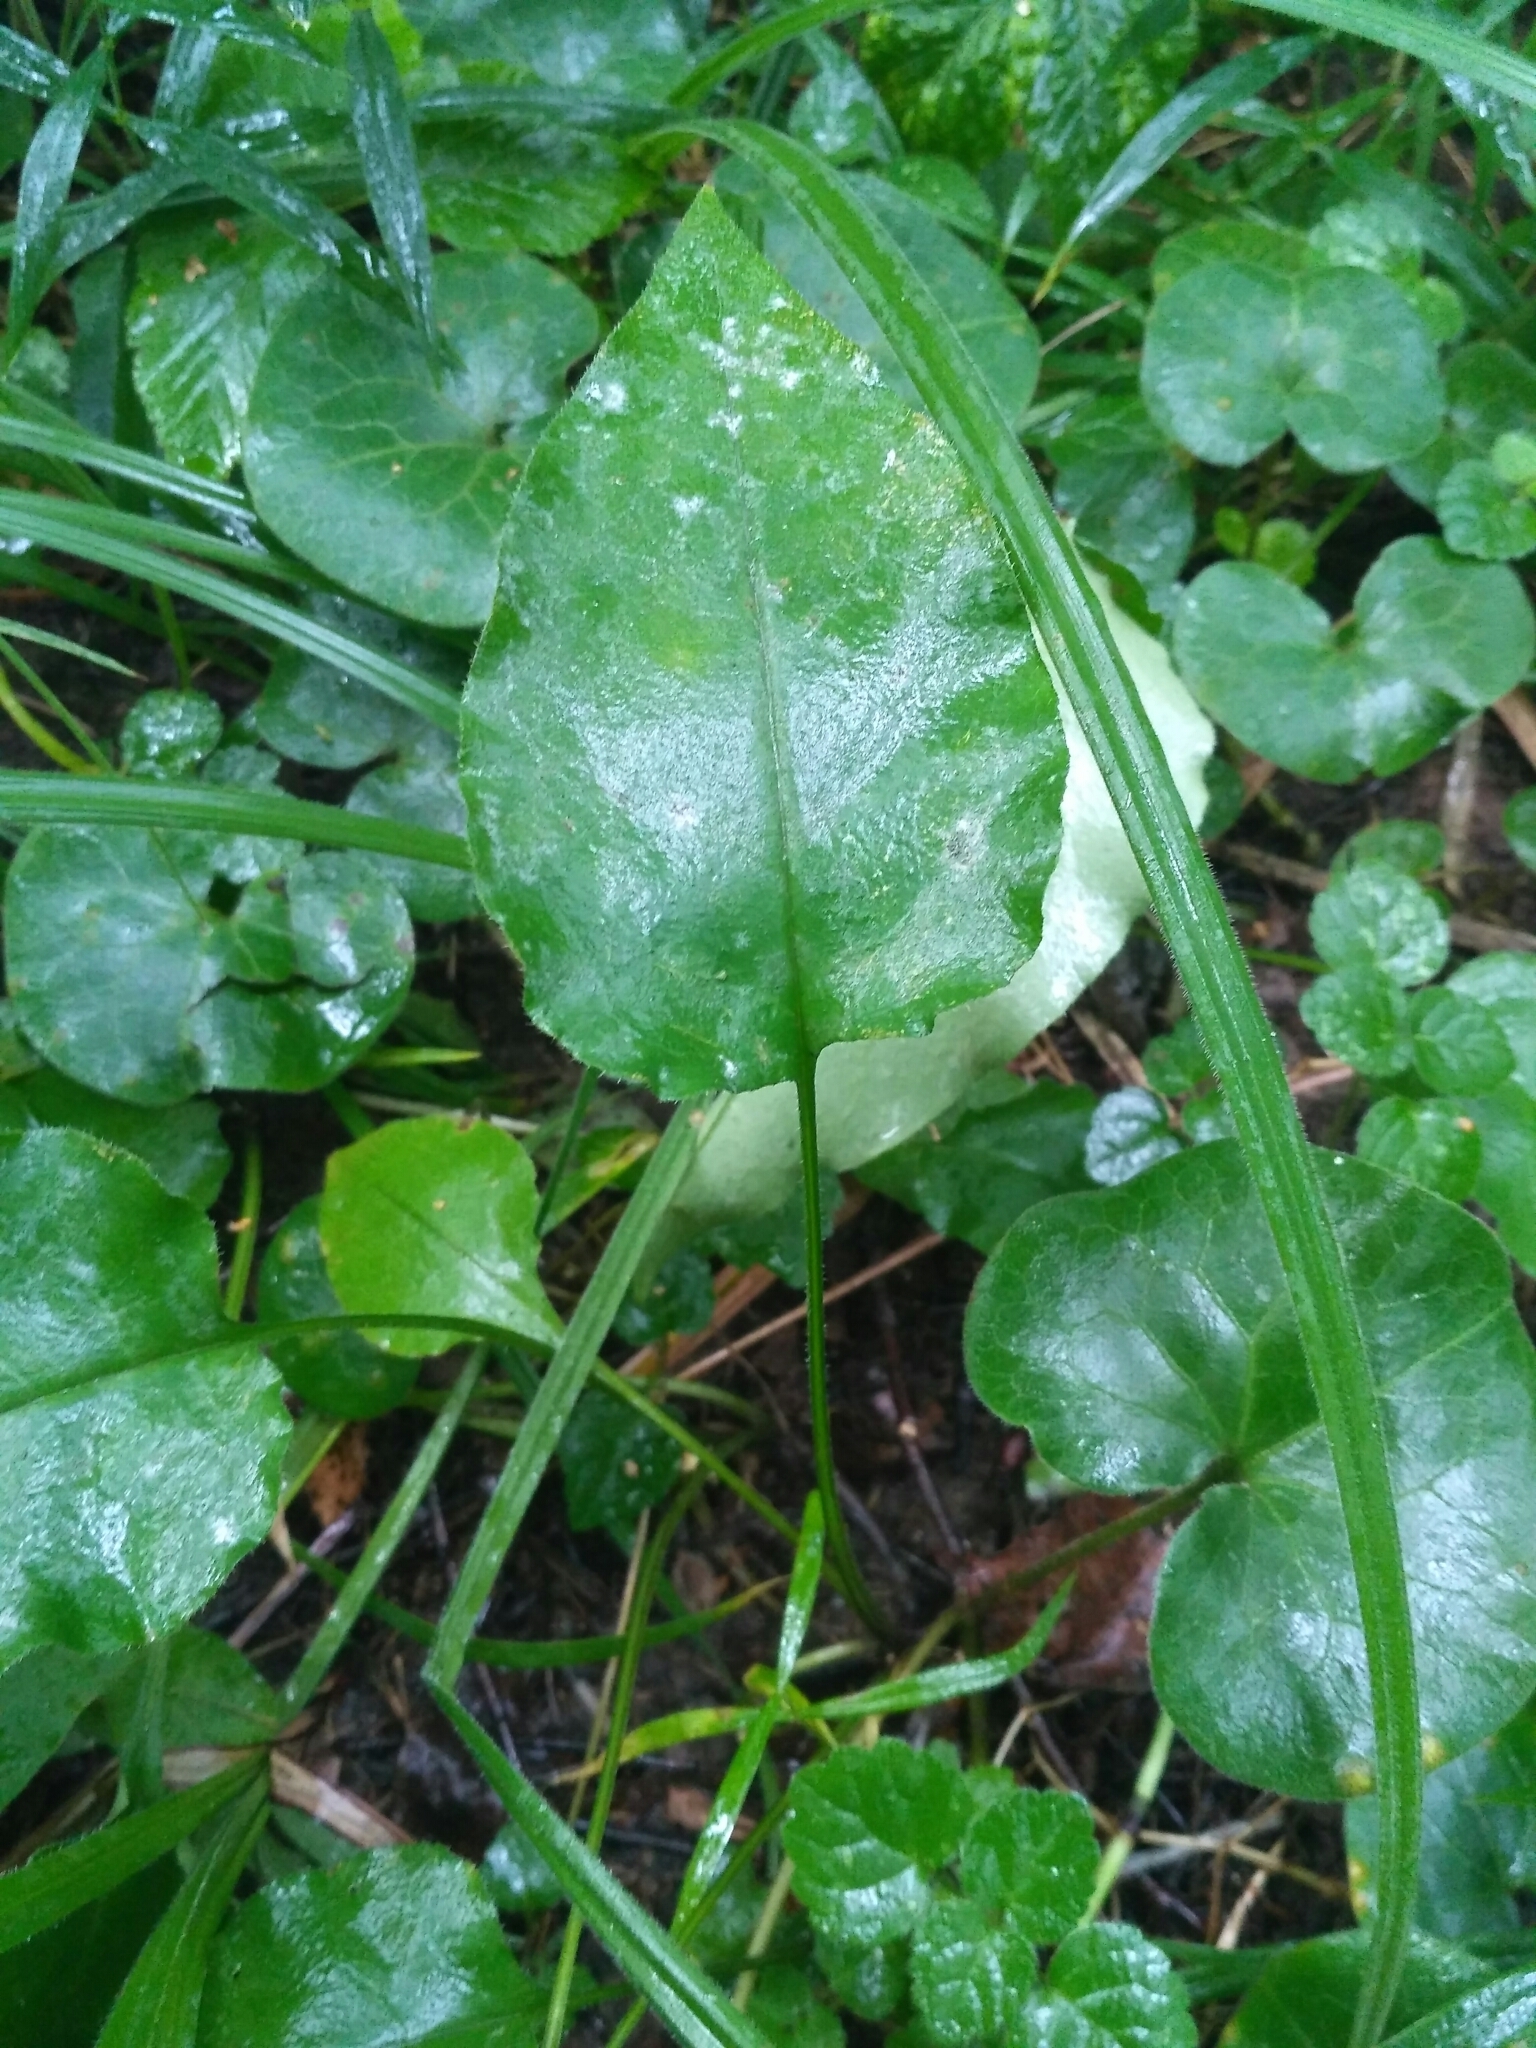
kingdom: Plantae
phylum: Tracheophyta
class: Magnoliopsida
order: Boraginales
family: Boraginaceae
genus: Pulmonaria
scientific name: Pulmonaria obscura
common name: Suffolk lungwort
